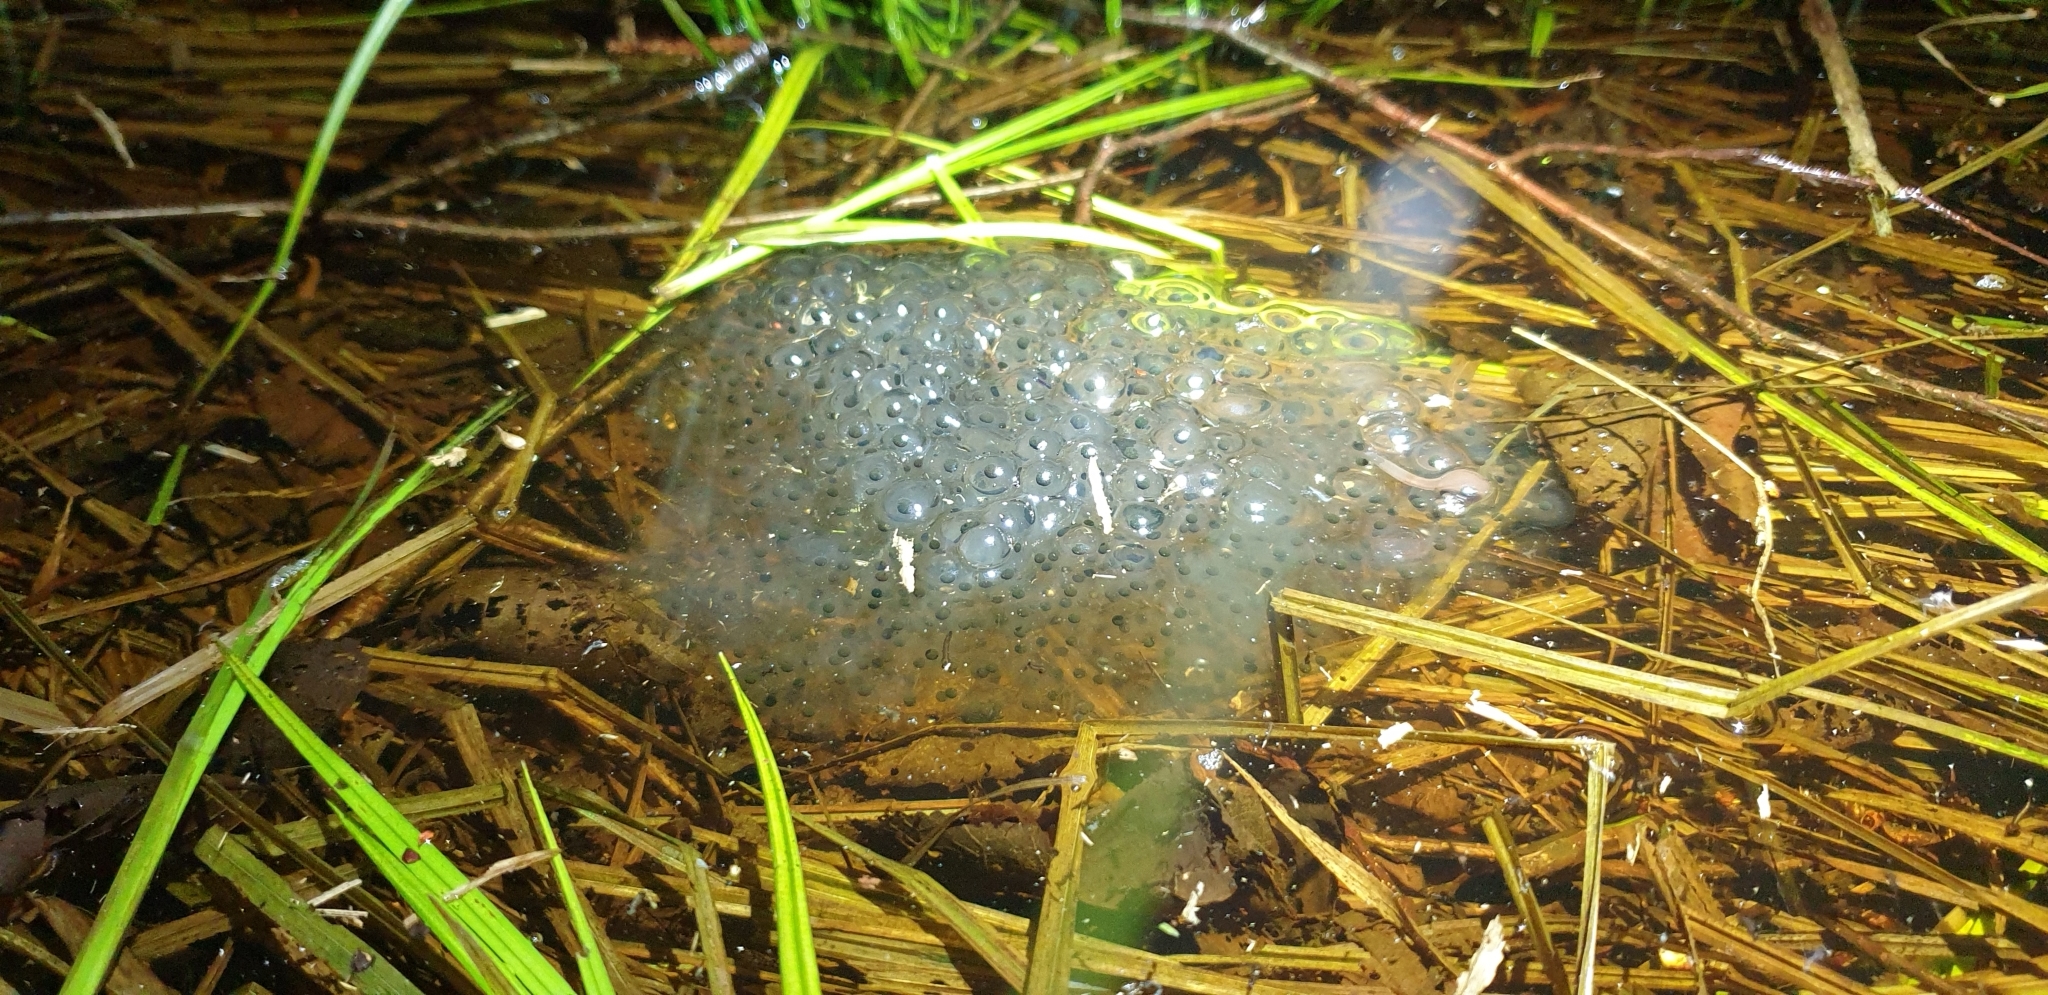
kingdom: Animalia
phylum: Chordata
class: Amphibia
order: Anura
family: Ranidae
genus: Rana
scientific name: Rana temporaria
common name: Common frog
